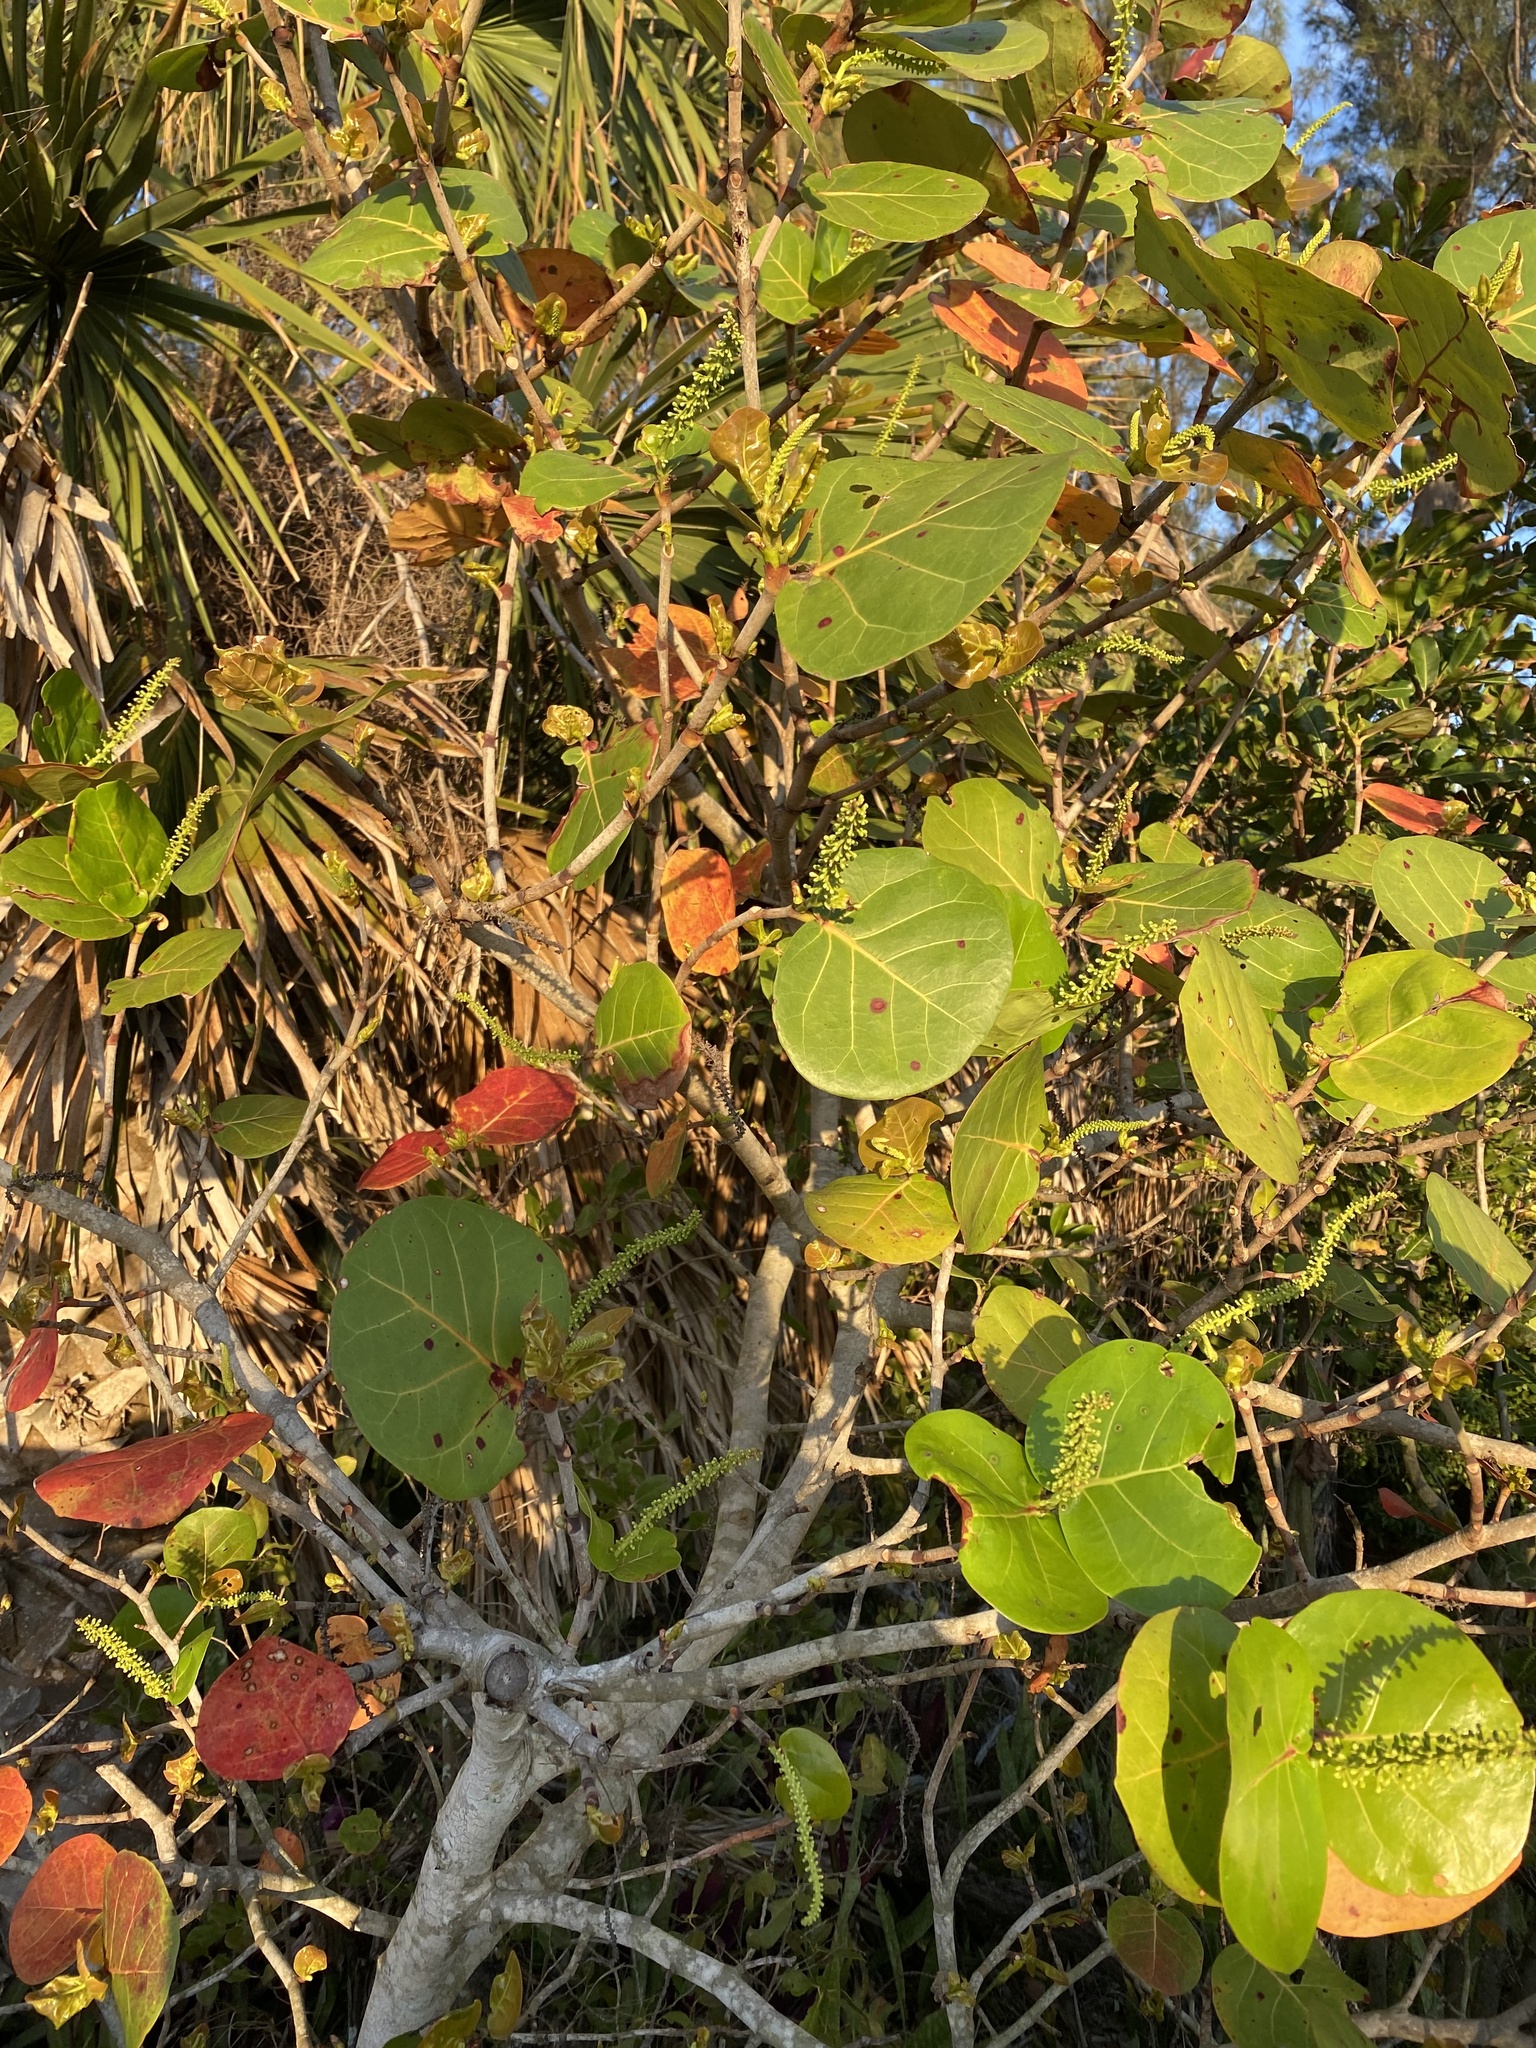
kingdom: Plantae
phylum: Tracheophyta
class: Magnoliopsida
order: Caryophyllales
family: Polygonaceae
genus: Coccoloba
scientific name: Coccoloba uvifera
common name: Seagrape
